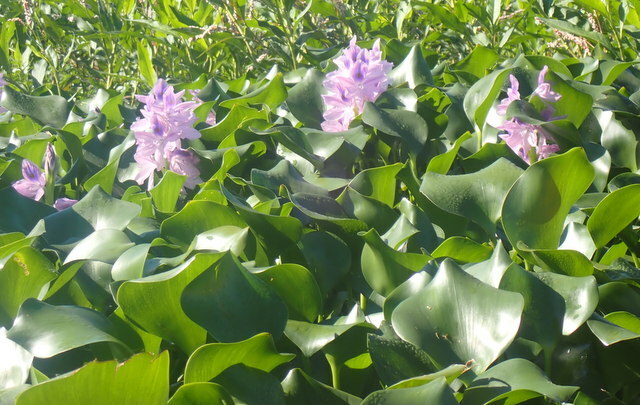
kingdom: Plantae
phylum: Tracheophyta
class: Liliopsida
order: Commelinales
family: Pontederiaceae
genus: Pontederia
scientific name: Pontederia crassipes
